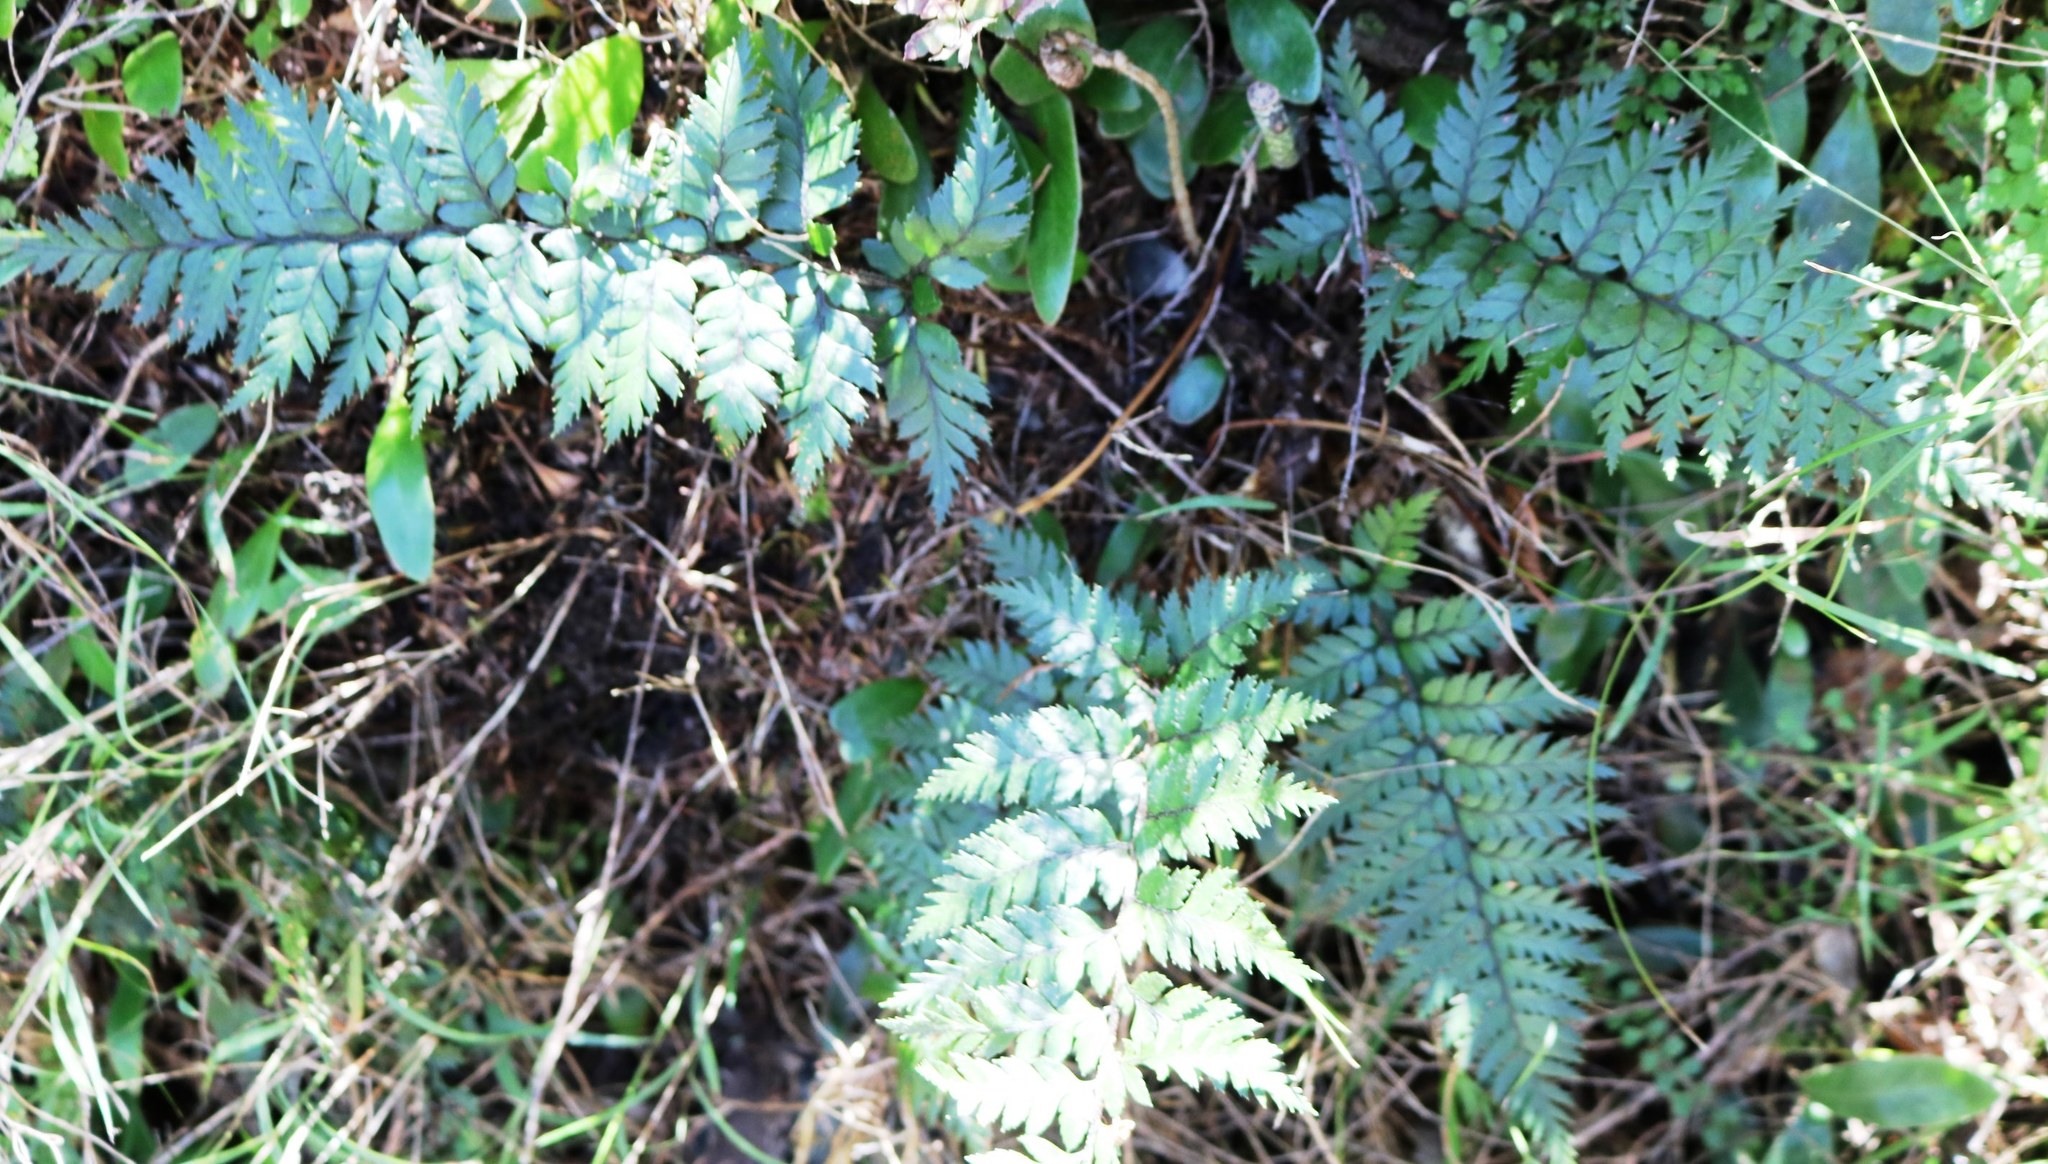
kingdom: Plantae
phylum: Tracheophyta
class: Polypodiopsida
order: Polypodiales
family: Dryopteridaceae
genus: Polystichum
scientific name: Polystichum neozelandicum
